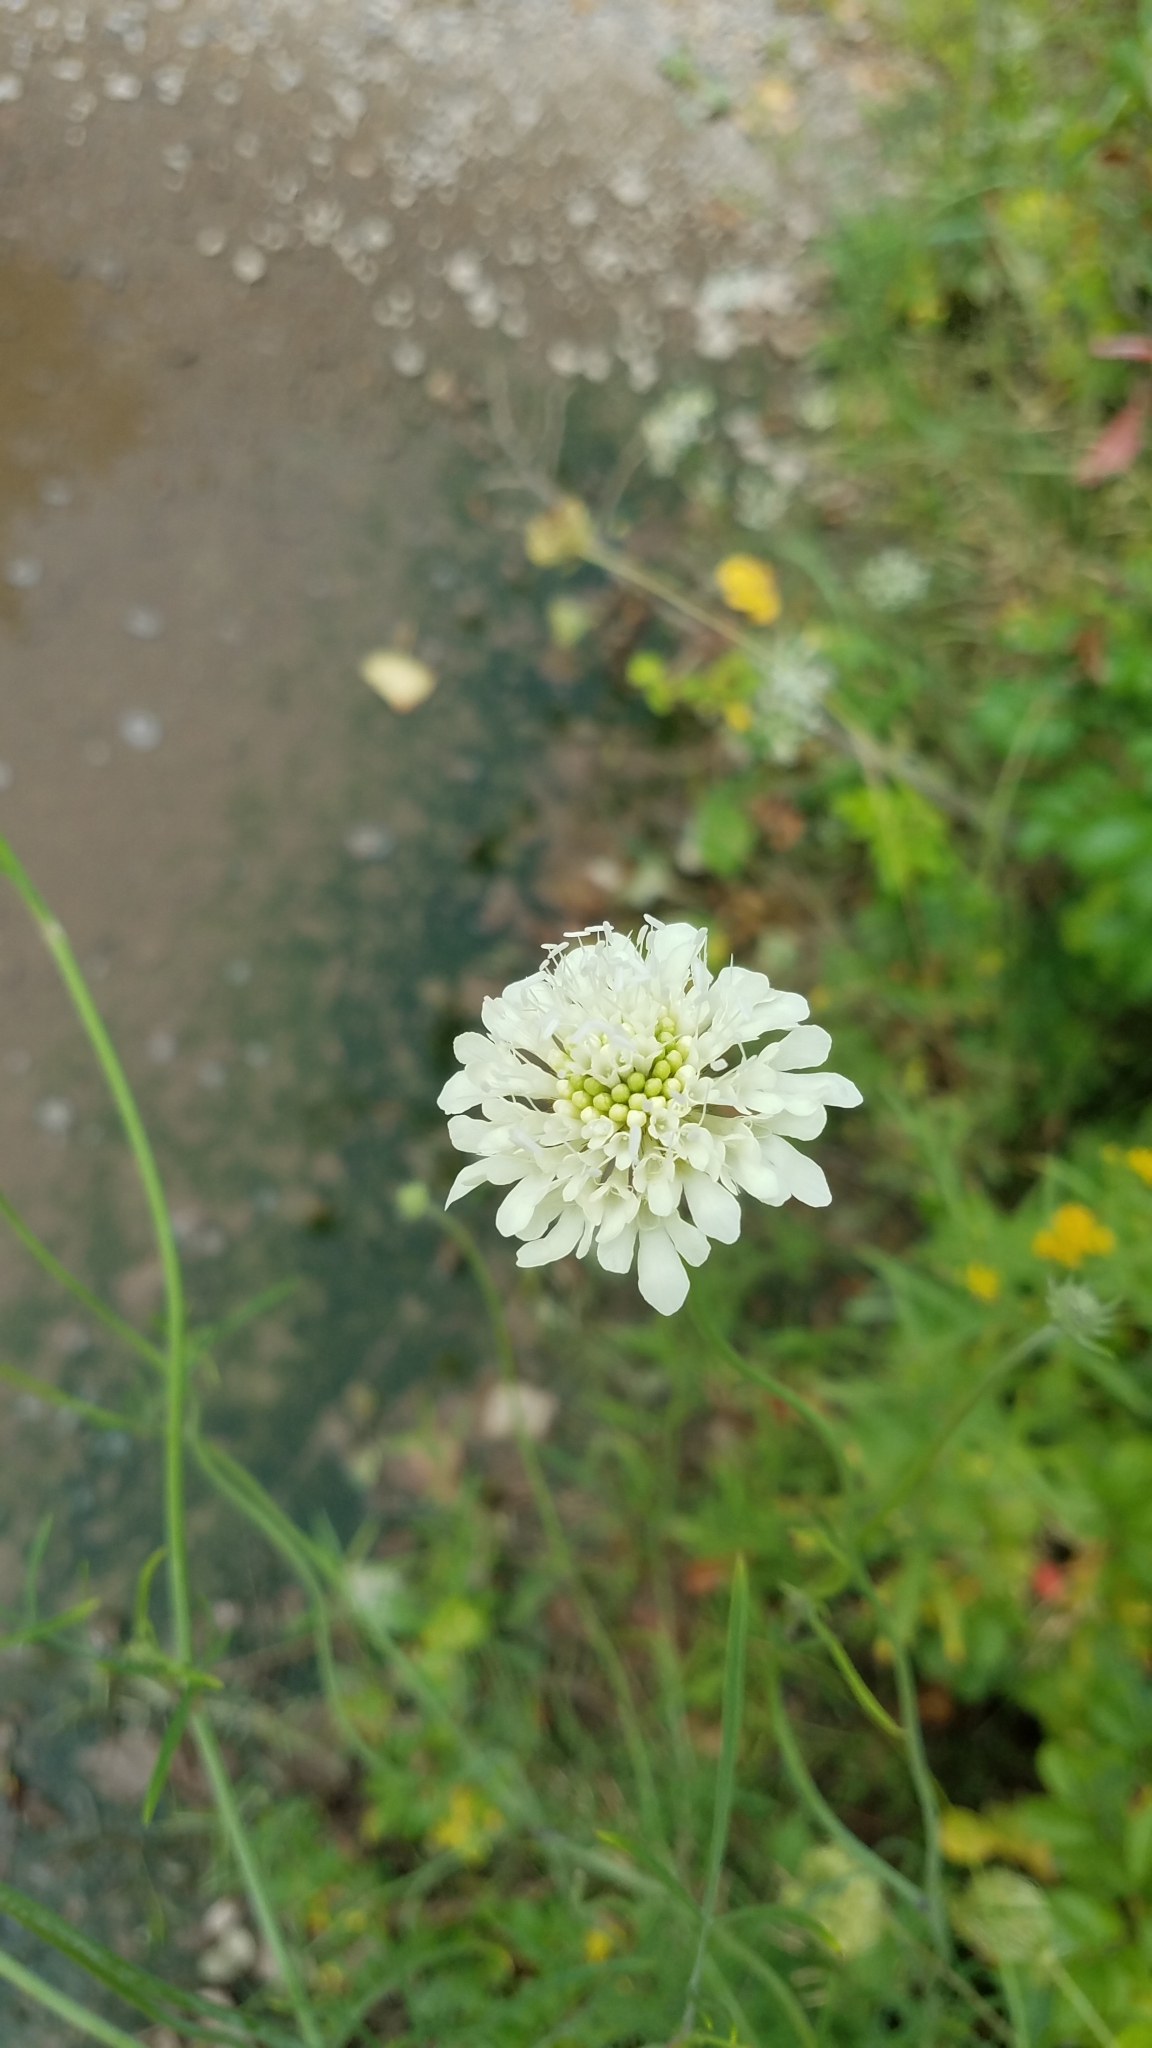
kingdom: Plantae
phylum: Tracheophyta
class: Magnoliopsida
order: Dipsacales
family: Caprifoliaceae
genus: Scabiosa
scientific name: Scabiosa ochroleuca
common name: Cream pincushions
